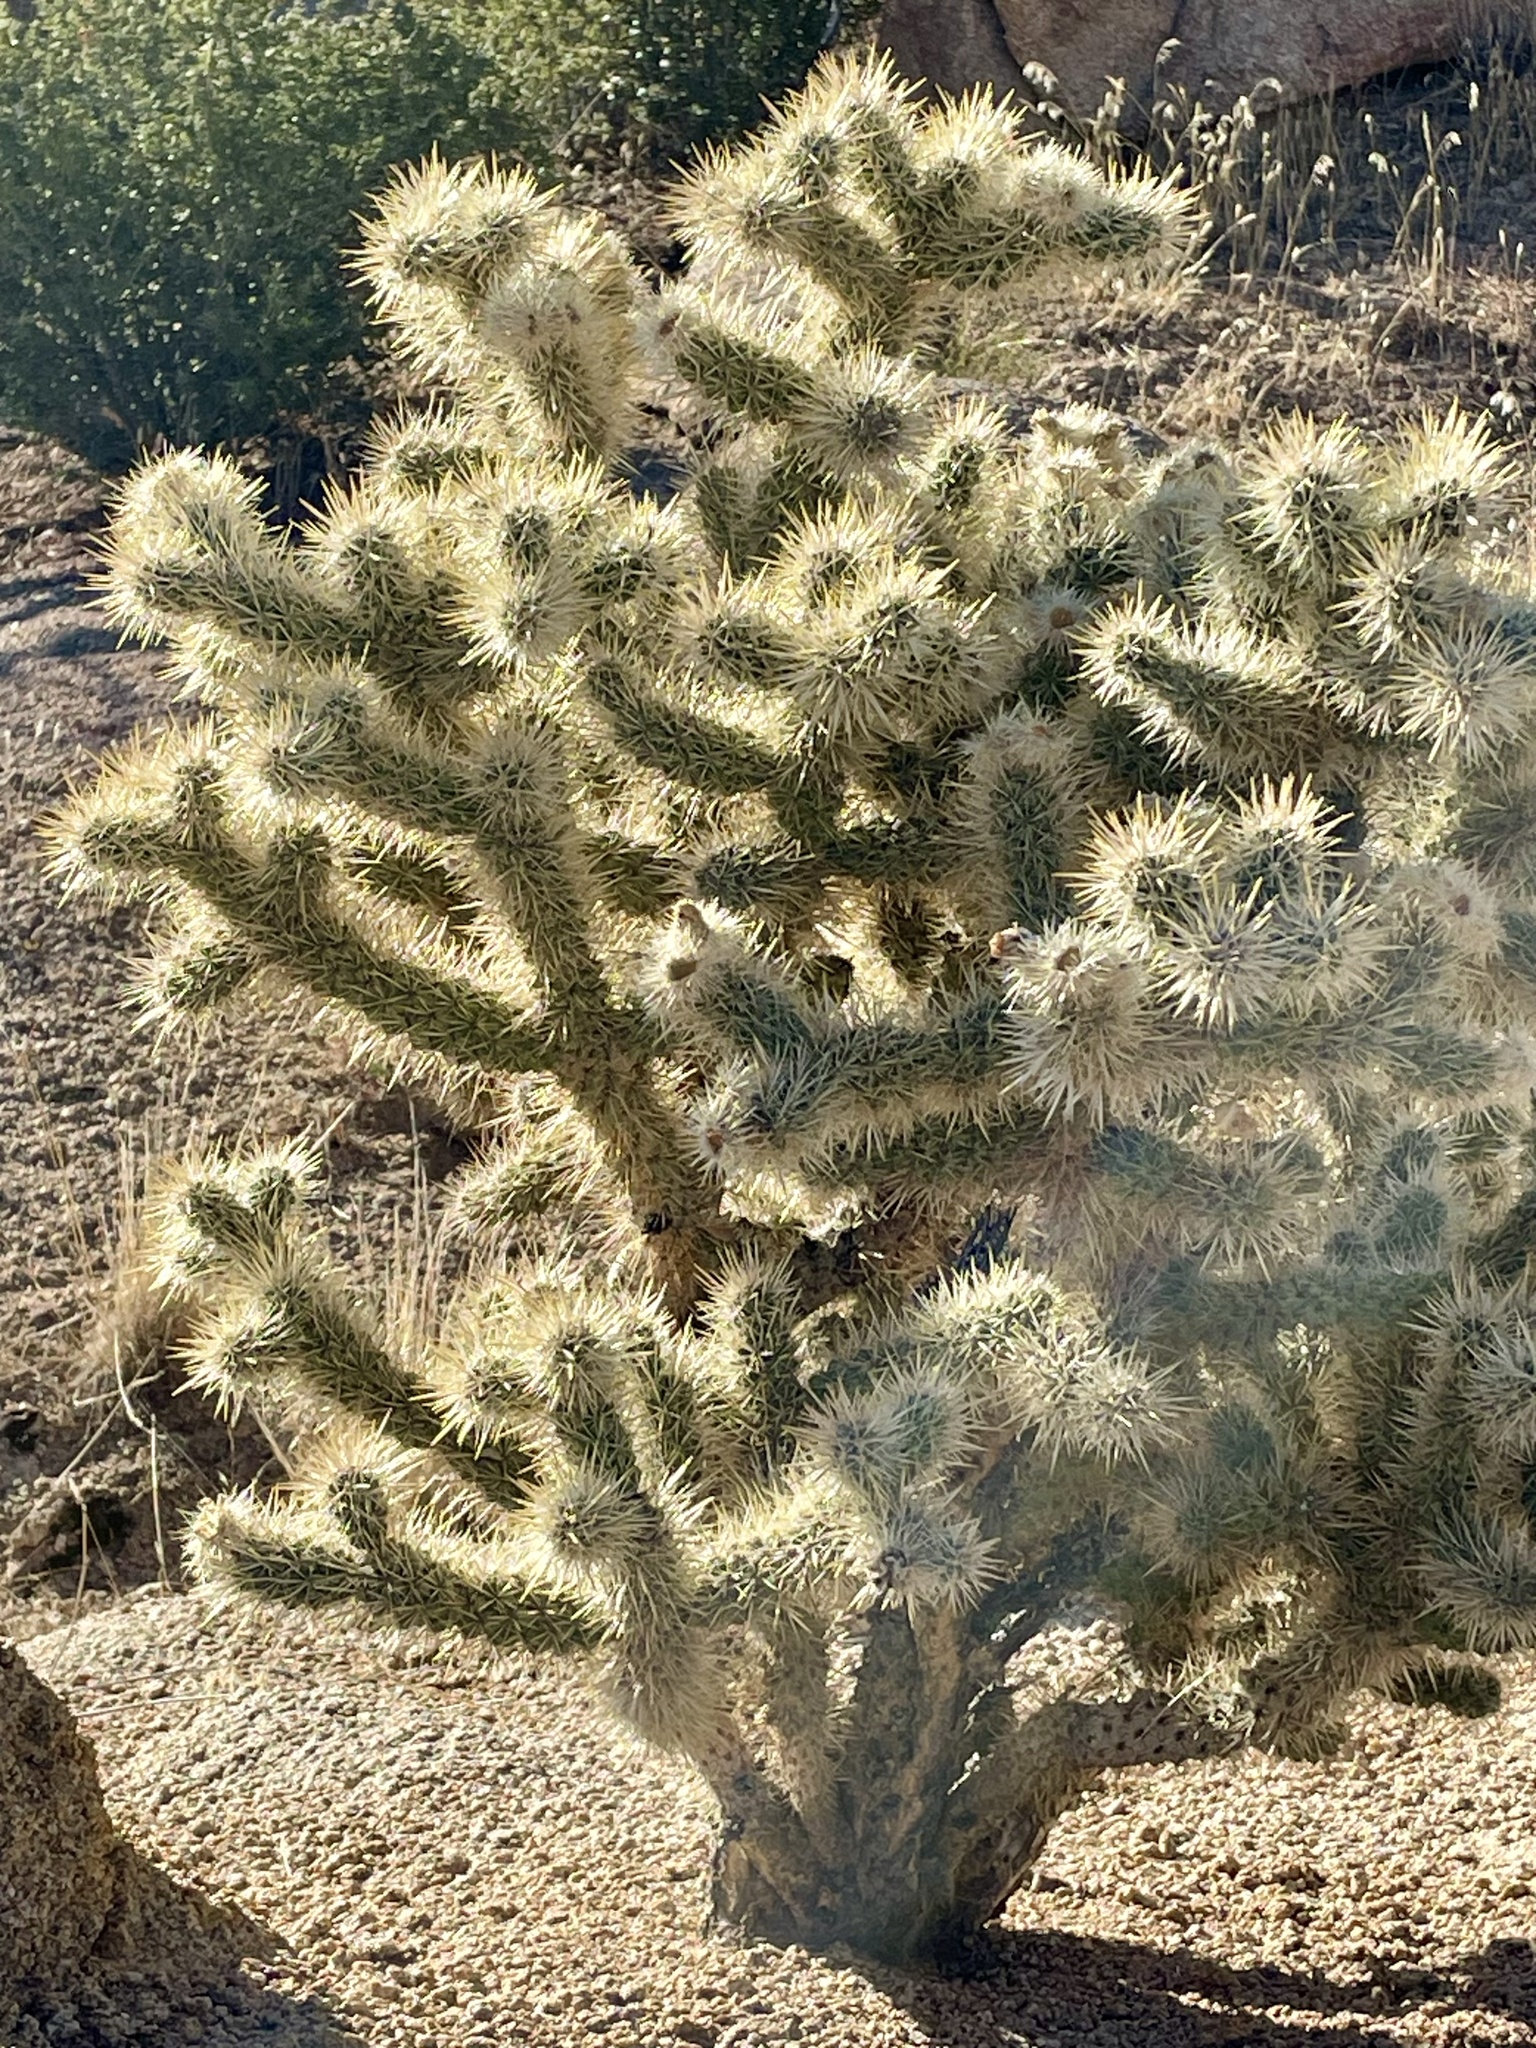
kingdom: Plantae
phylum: Tracheophyta
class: Magnoliopsida
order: Caryophyllales
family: Cactaceae
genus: Cylindropuntia
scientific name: Cylindropuntia echinocarpa
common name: Ground cholla
